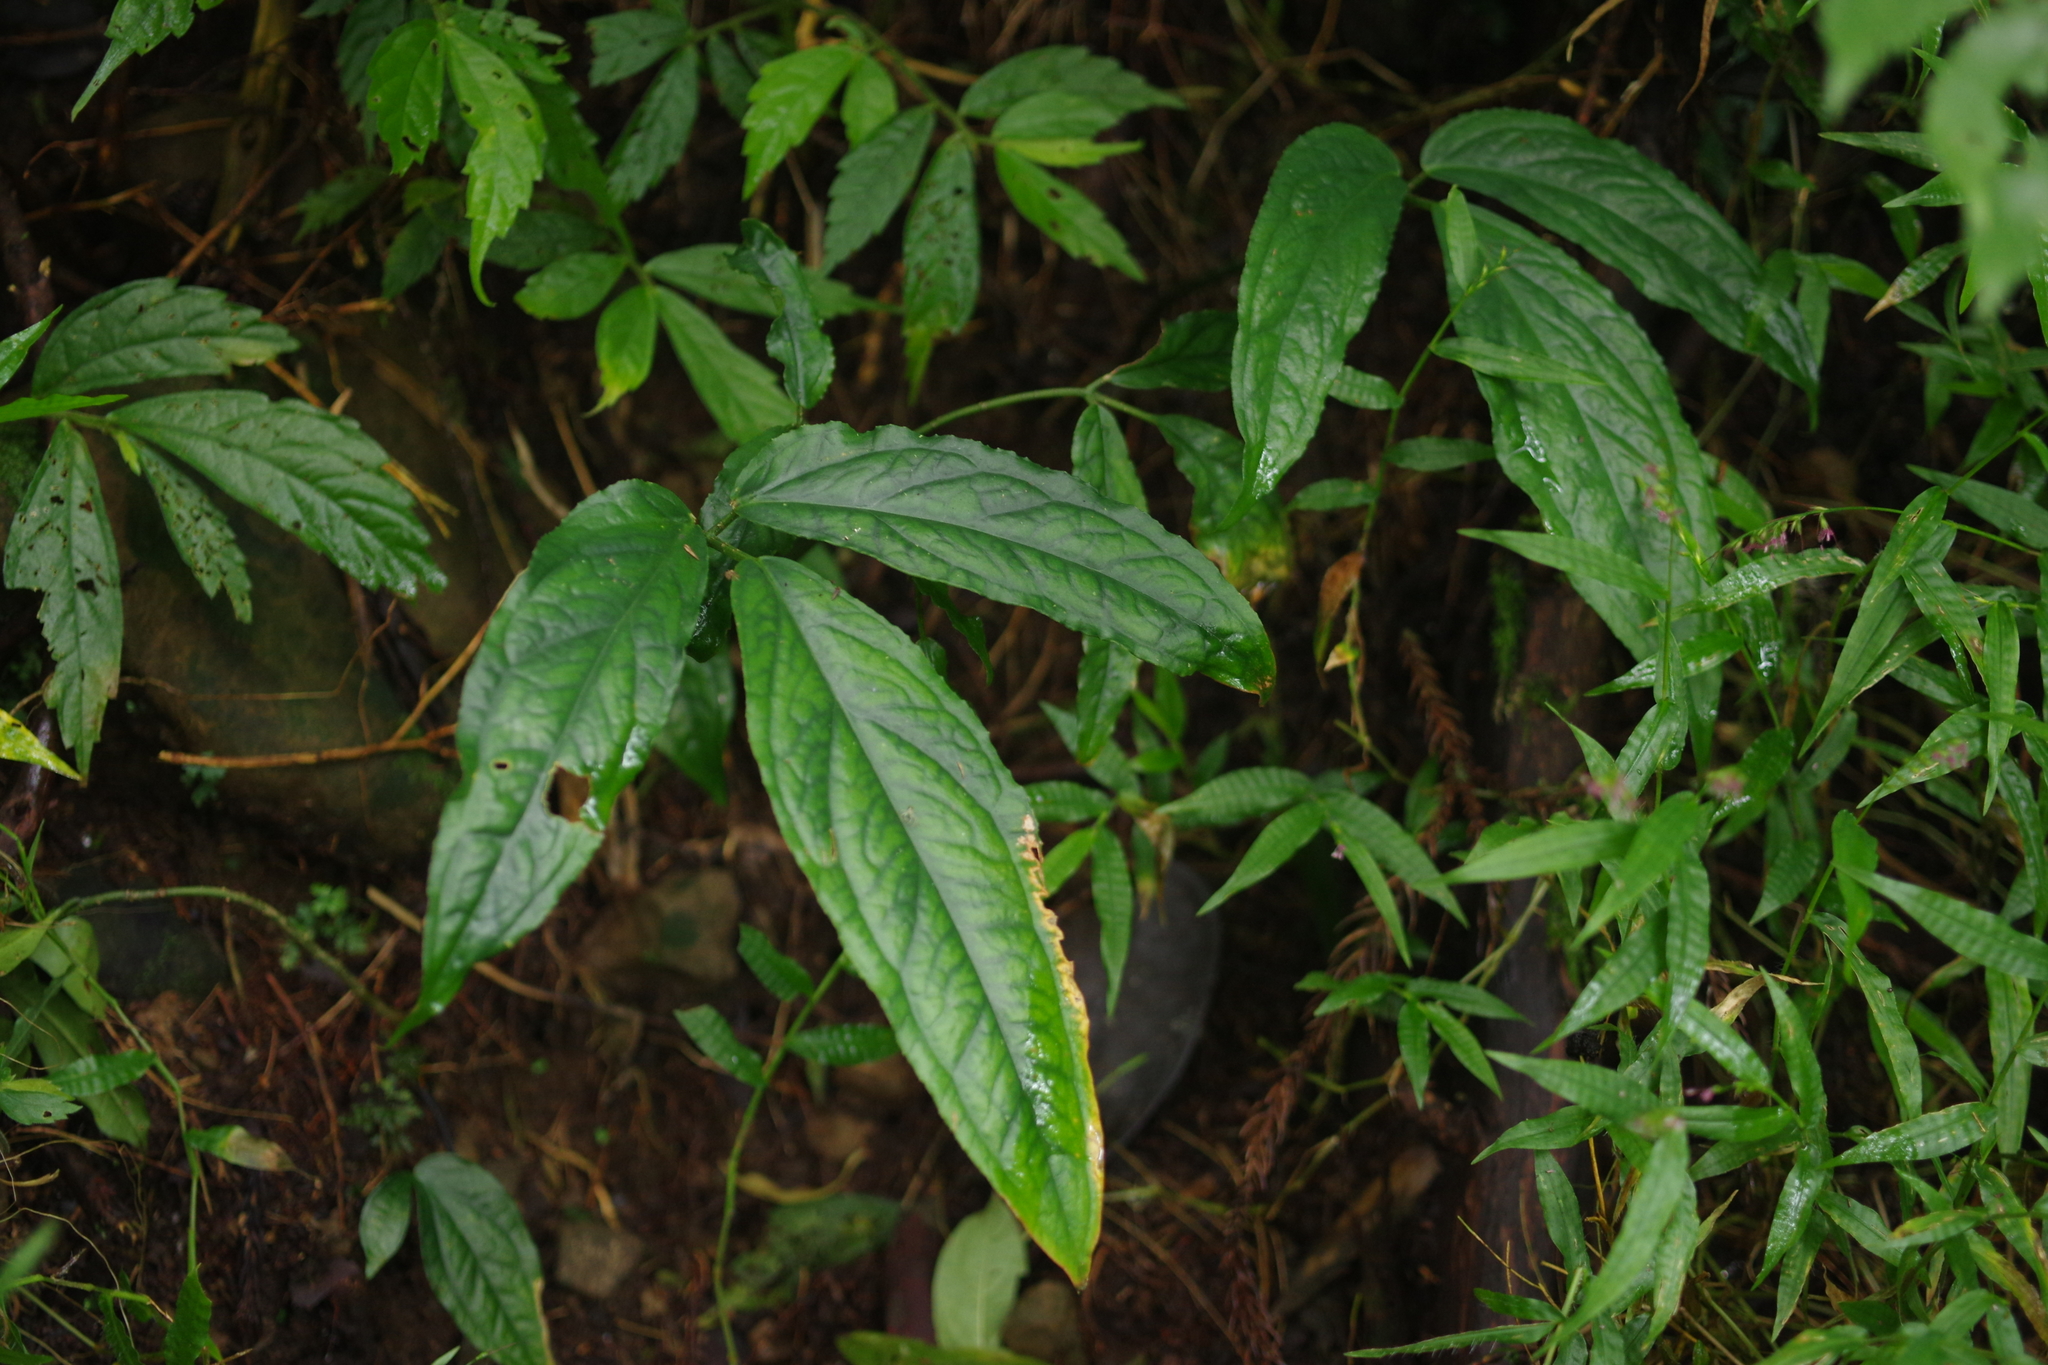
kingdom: Plantae
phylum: Tracheophyta
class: Liliopsida
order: Alismatales
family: Araceae
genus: Arisaema
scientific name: Arisaema grapsospadix
